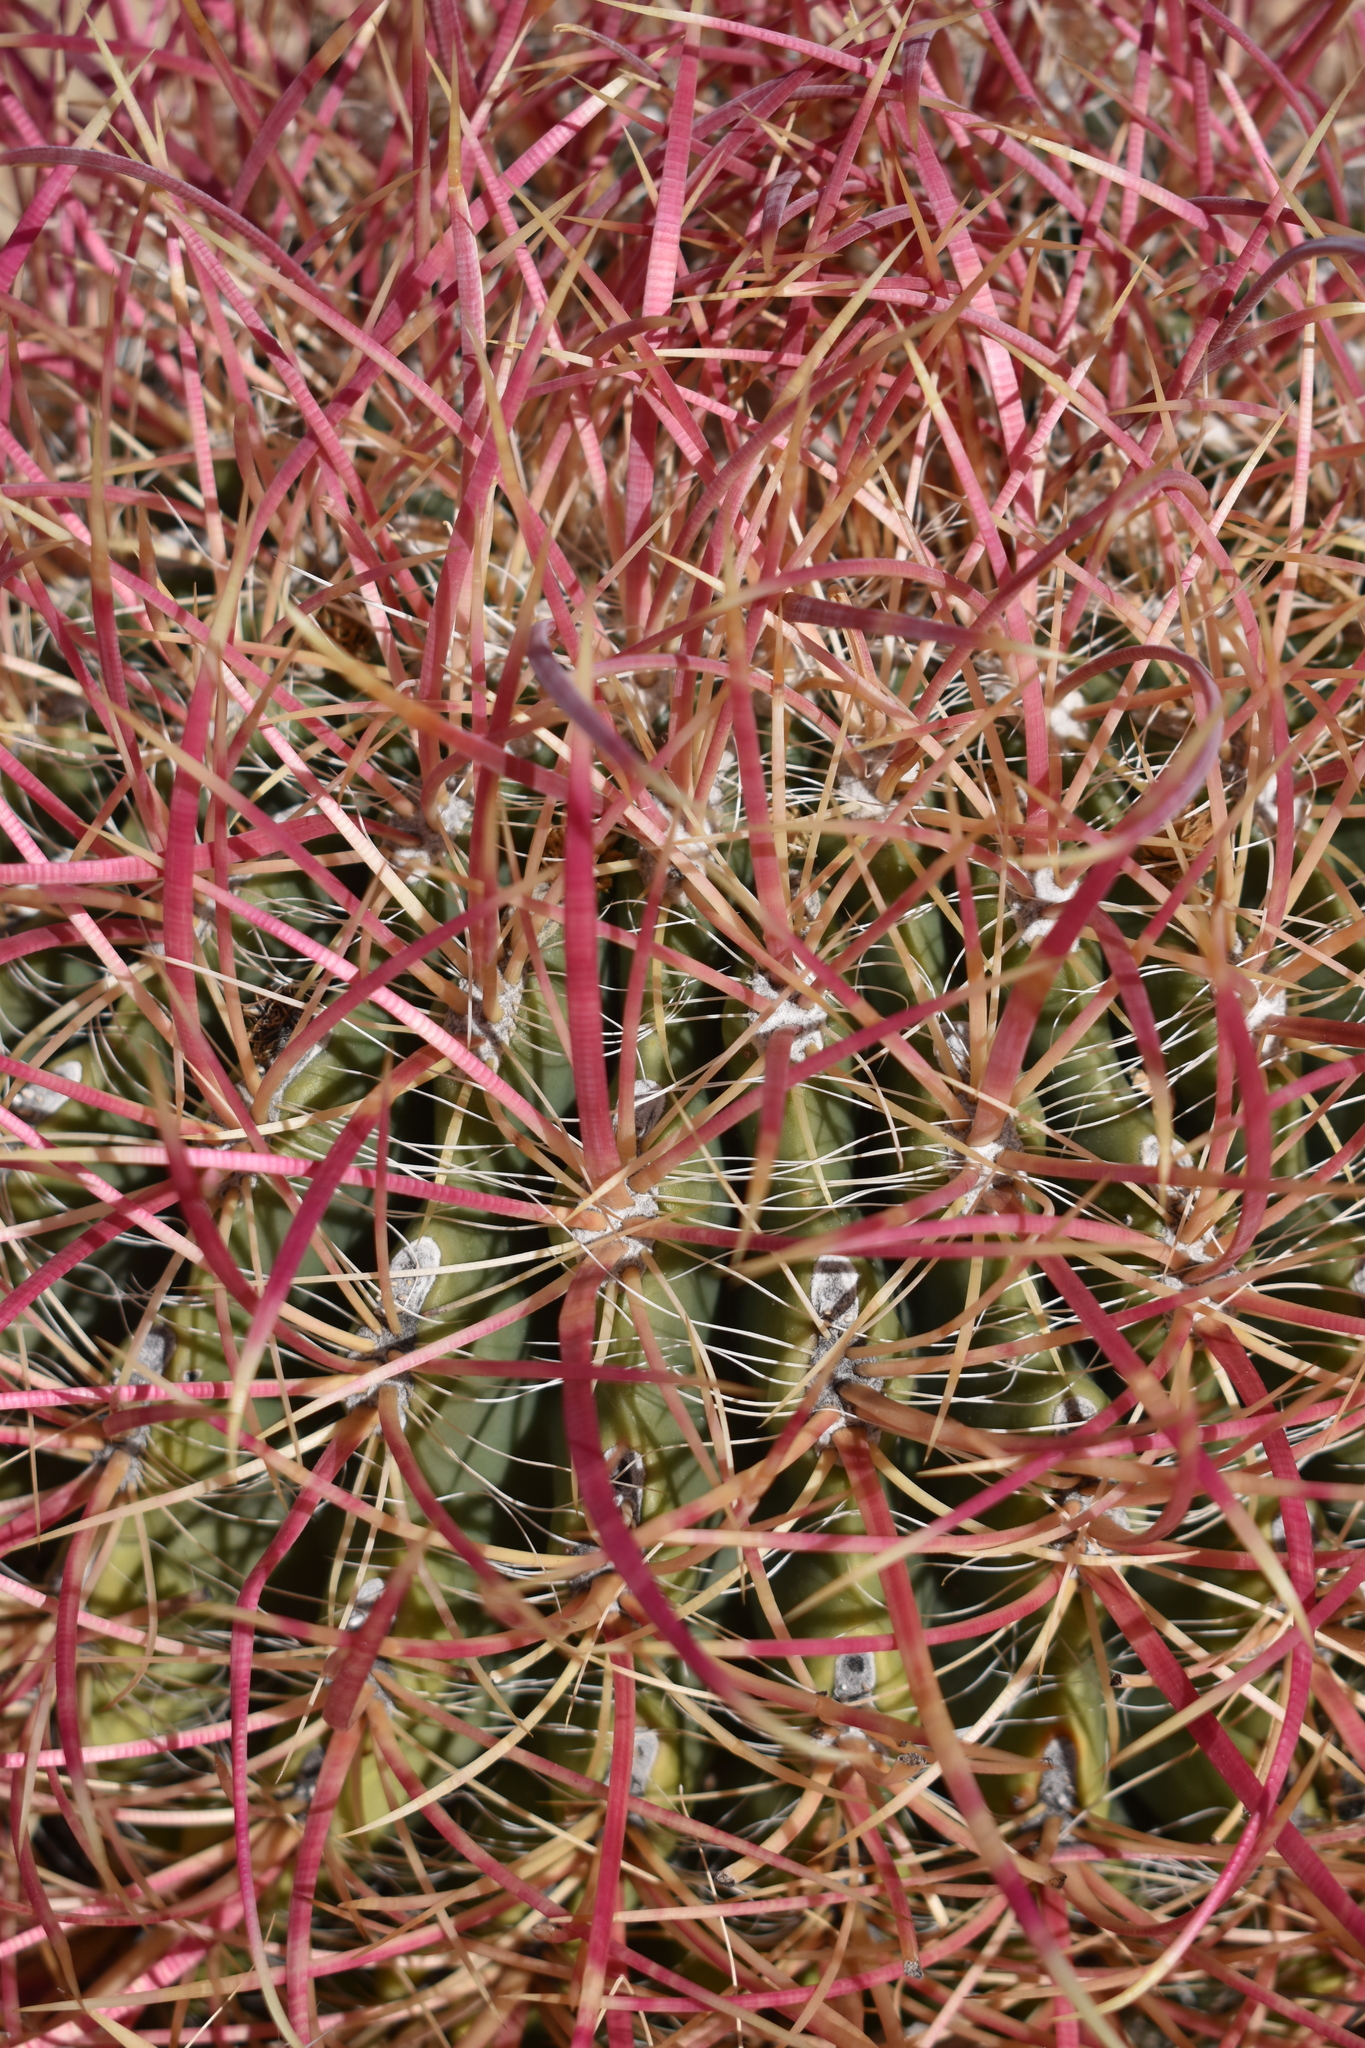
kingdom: Plantae
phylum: Tracheophyta
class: Magnoliopsida
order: Caryophyllales
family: Cactaceae
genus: Ferocactus
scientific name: Ferocactus cylindraceus
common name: California barrel cactus
